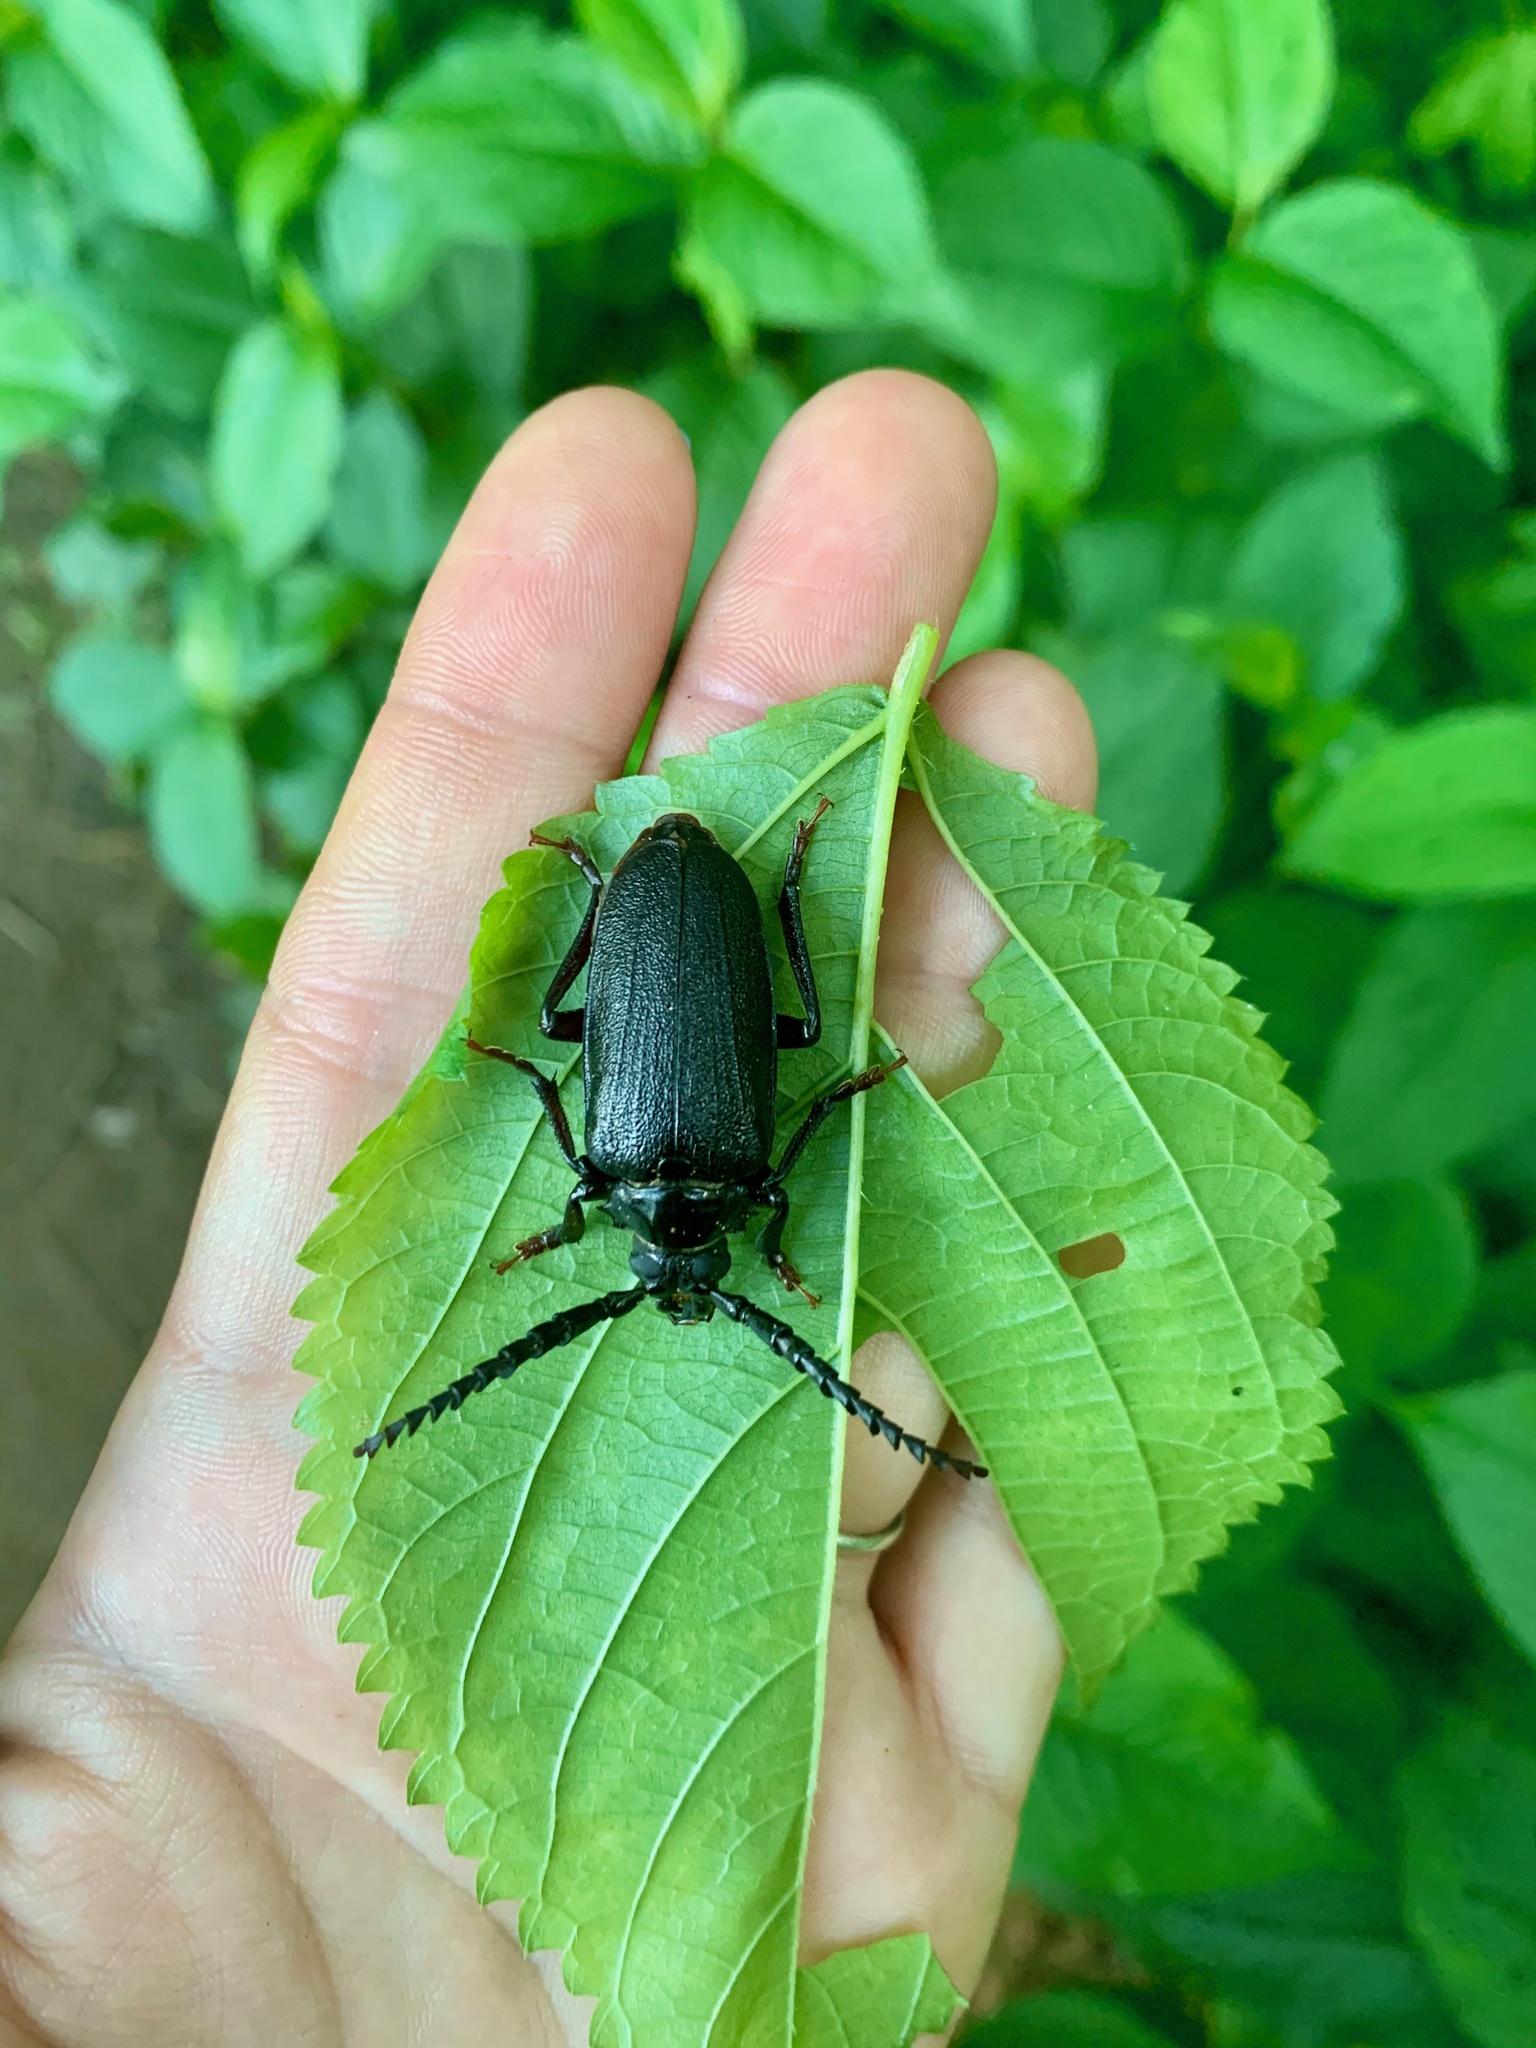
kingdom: Animalia
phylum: Arthropoda
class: Insecta
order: Coleoptera
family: Cerambycidae
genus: Prionus
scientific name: Prionus laticollis
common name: Broad necked prionus
